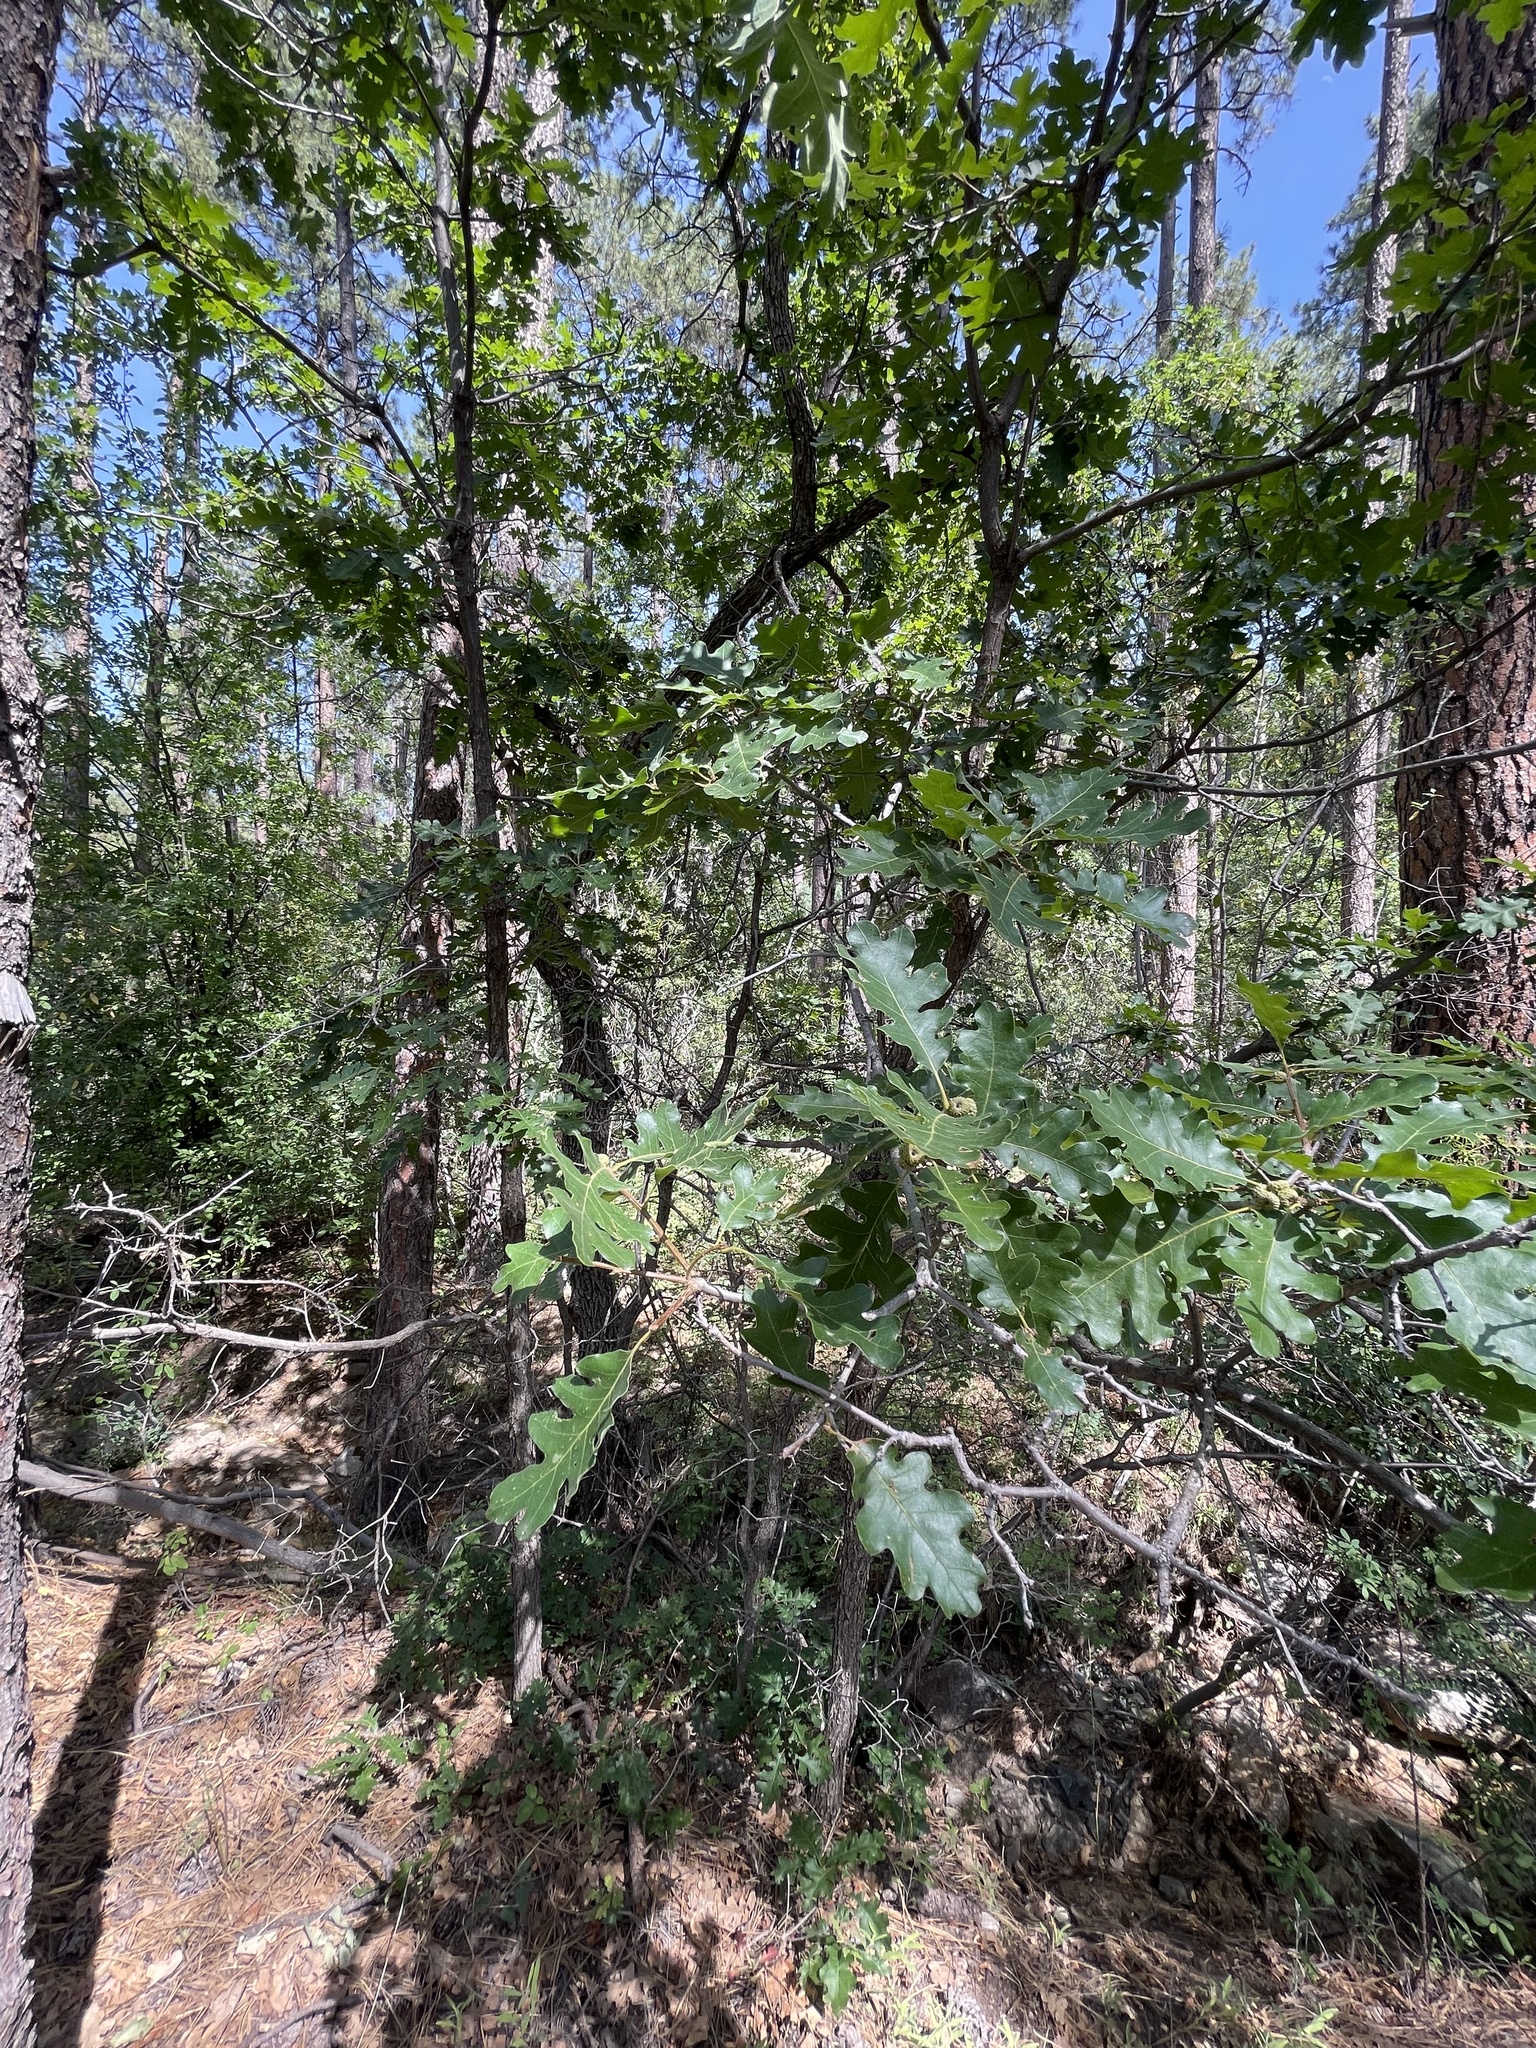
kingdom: Plantae
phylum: Tracheophyta
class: Magnoliopsida
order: Fagales
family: Fagaceae
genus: Quercus
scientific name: Quercus gambelii
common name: Gambel oak
